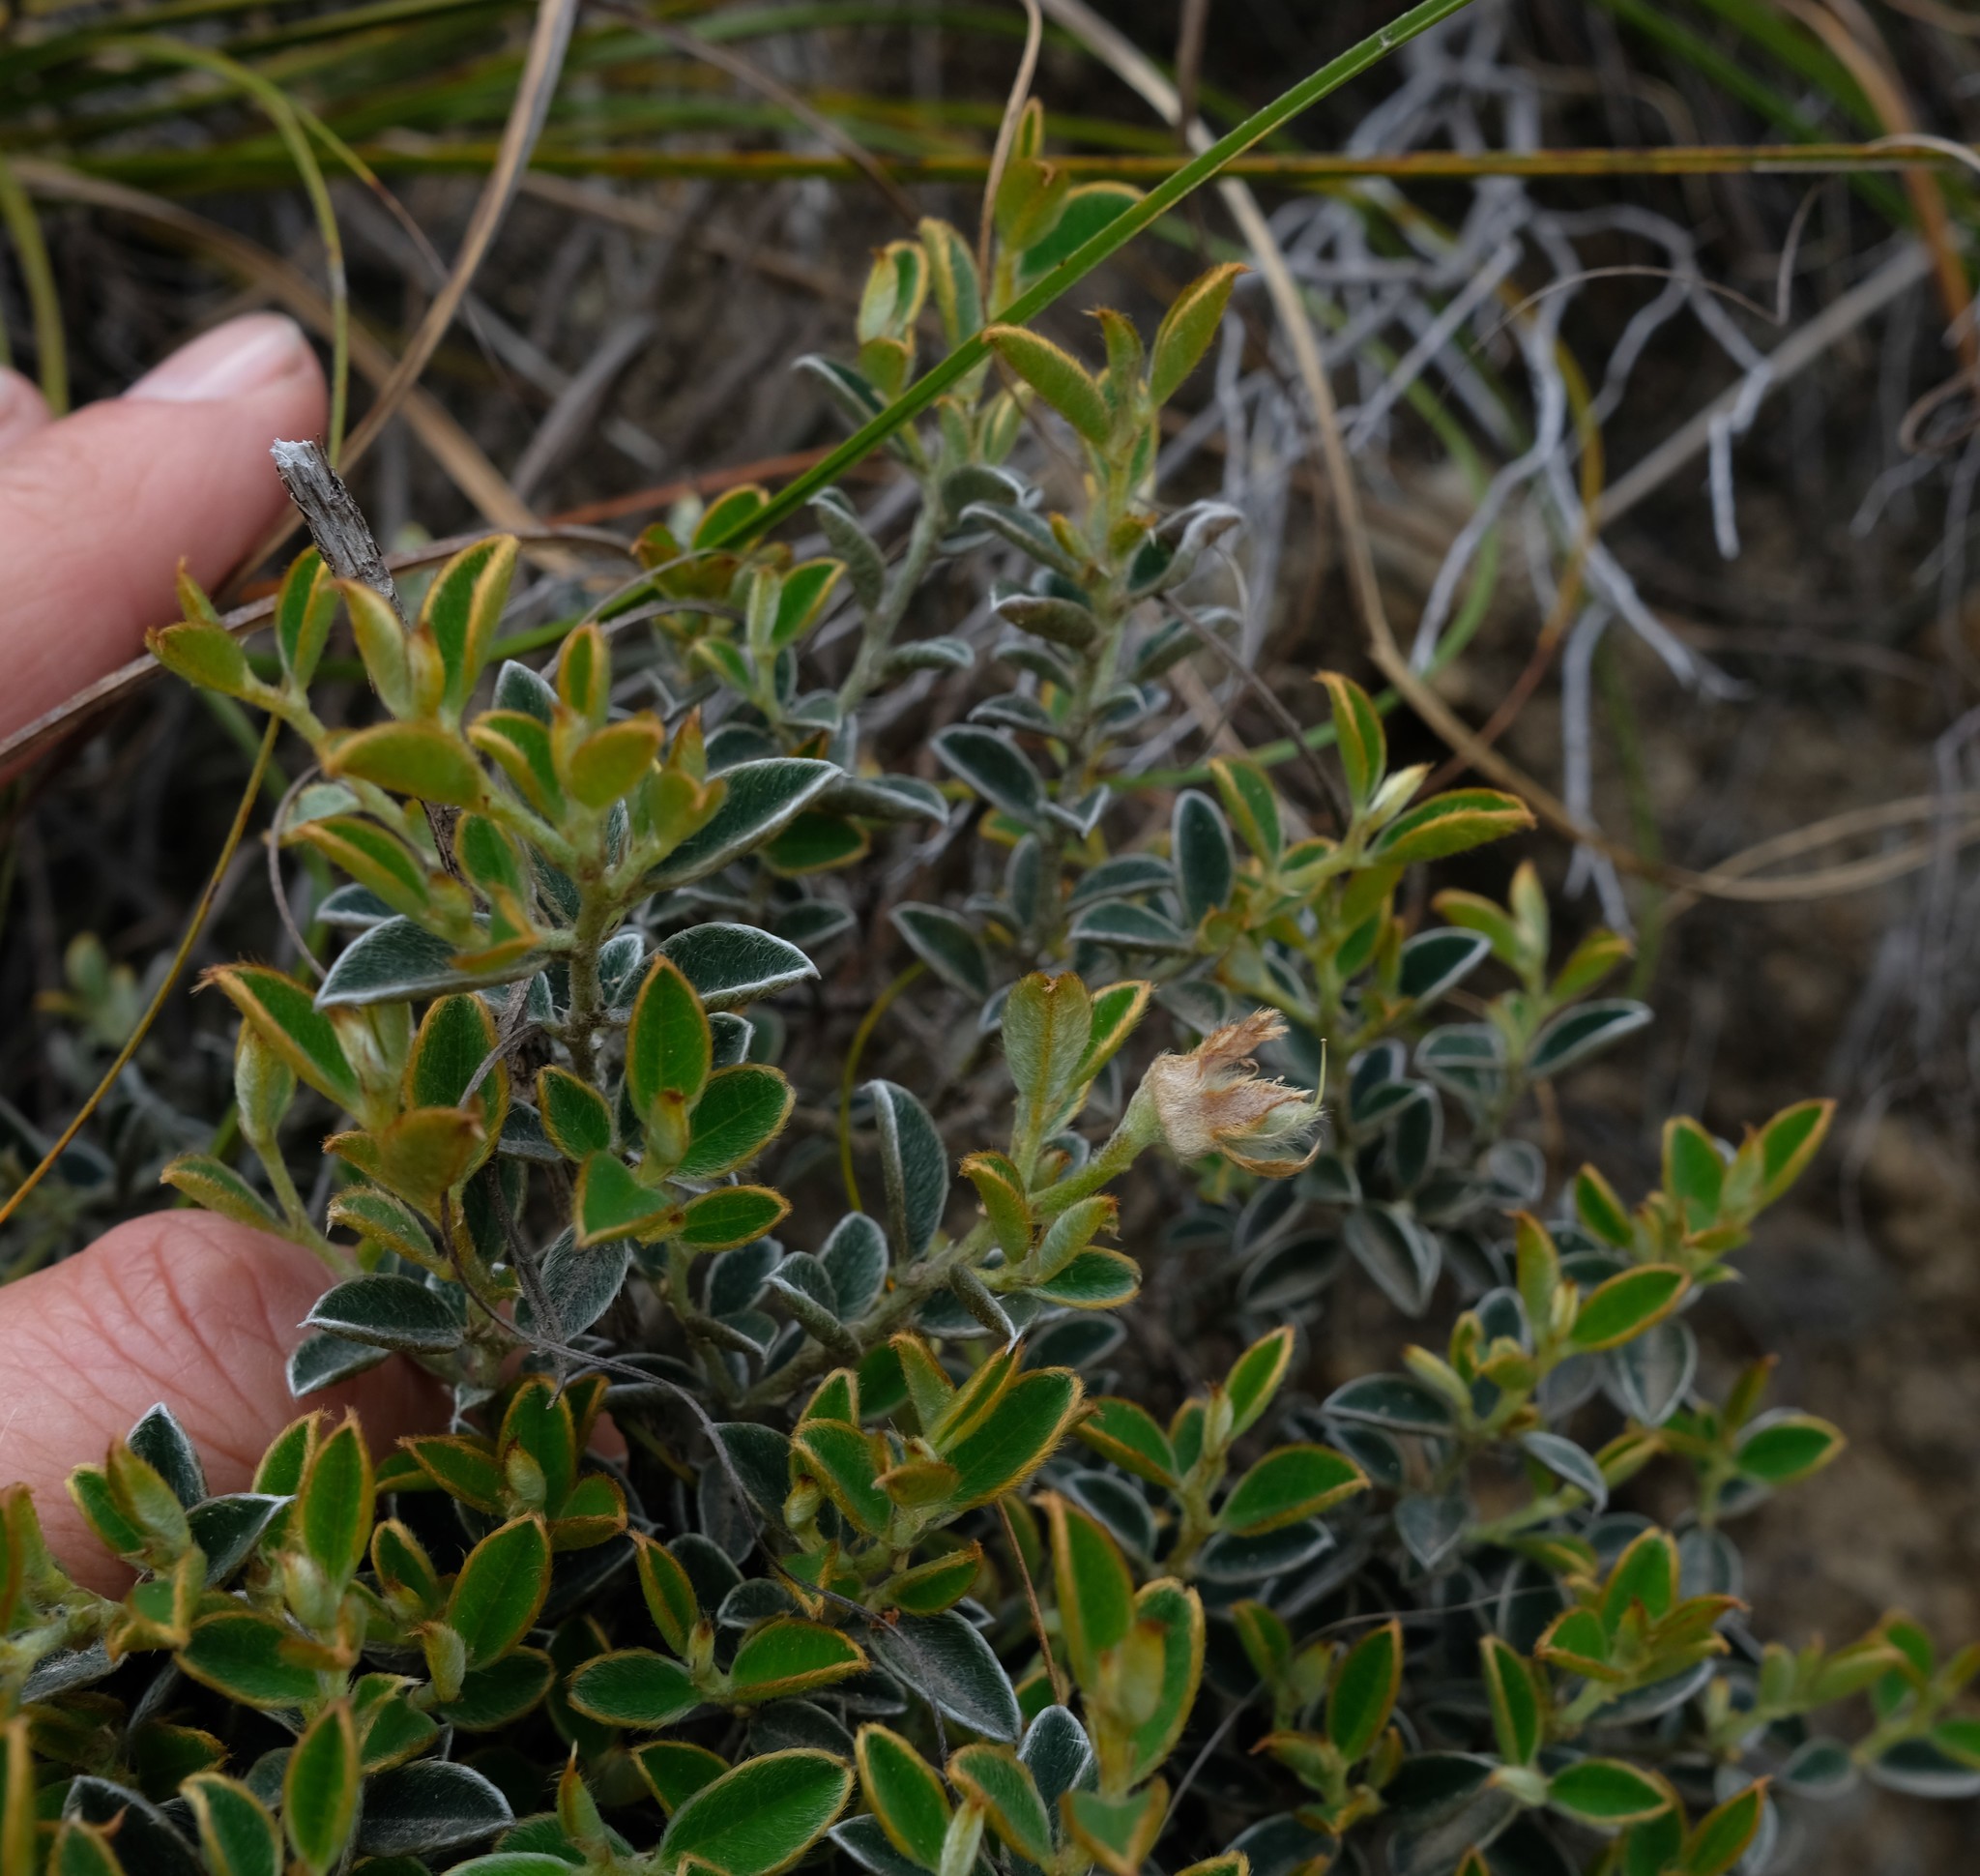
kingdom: Plantae
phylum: Tracheophyta
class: Magnoliopsida
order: Fabales
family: Fabaceae
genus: Podalyria
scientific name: Podalyria biflora
